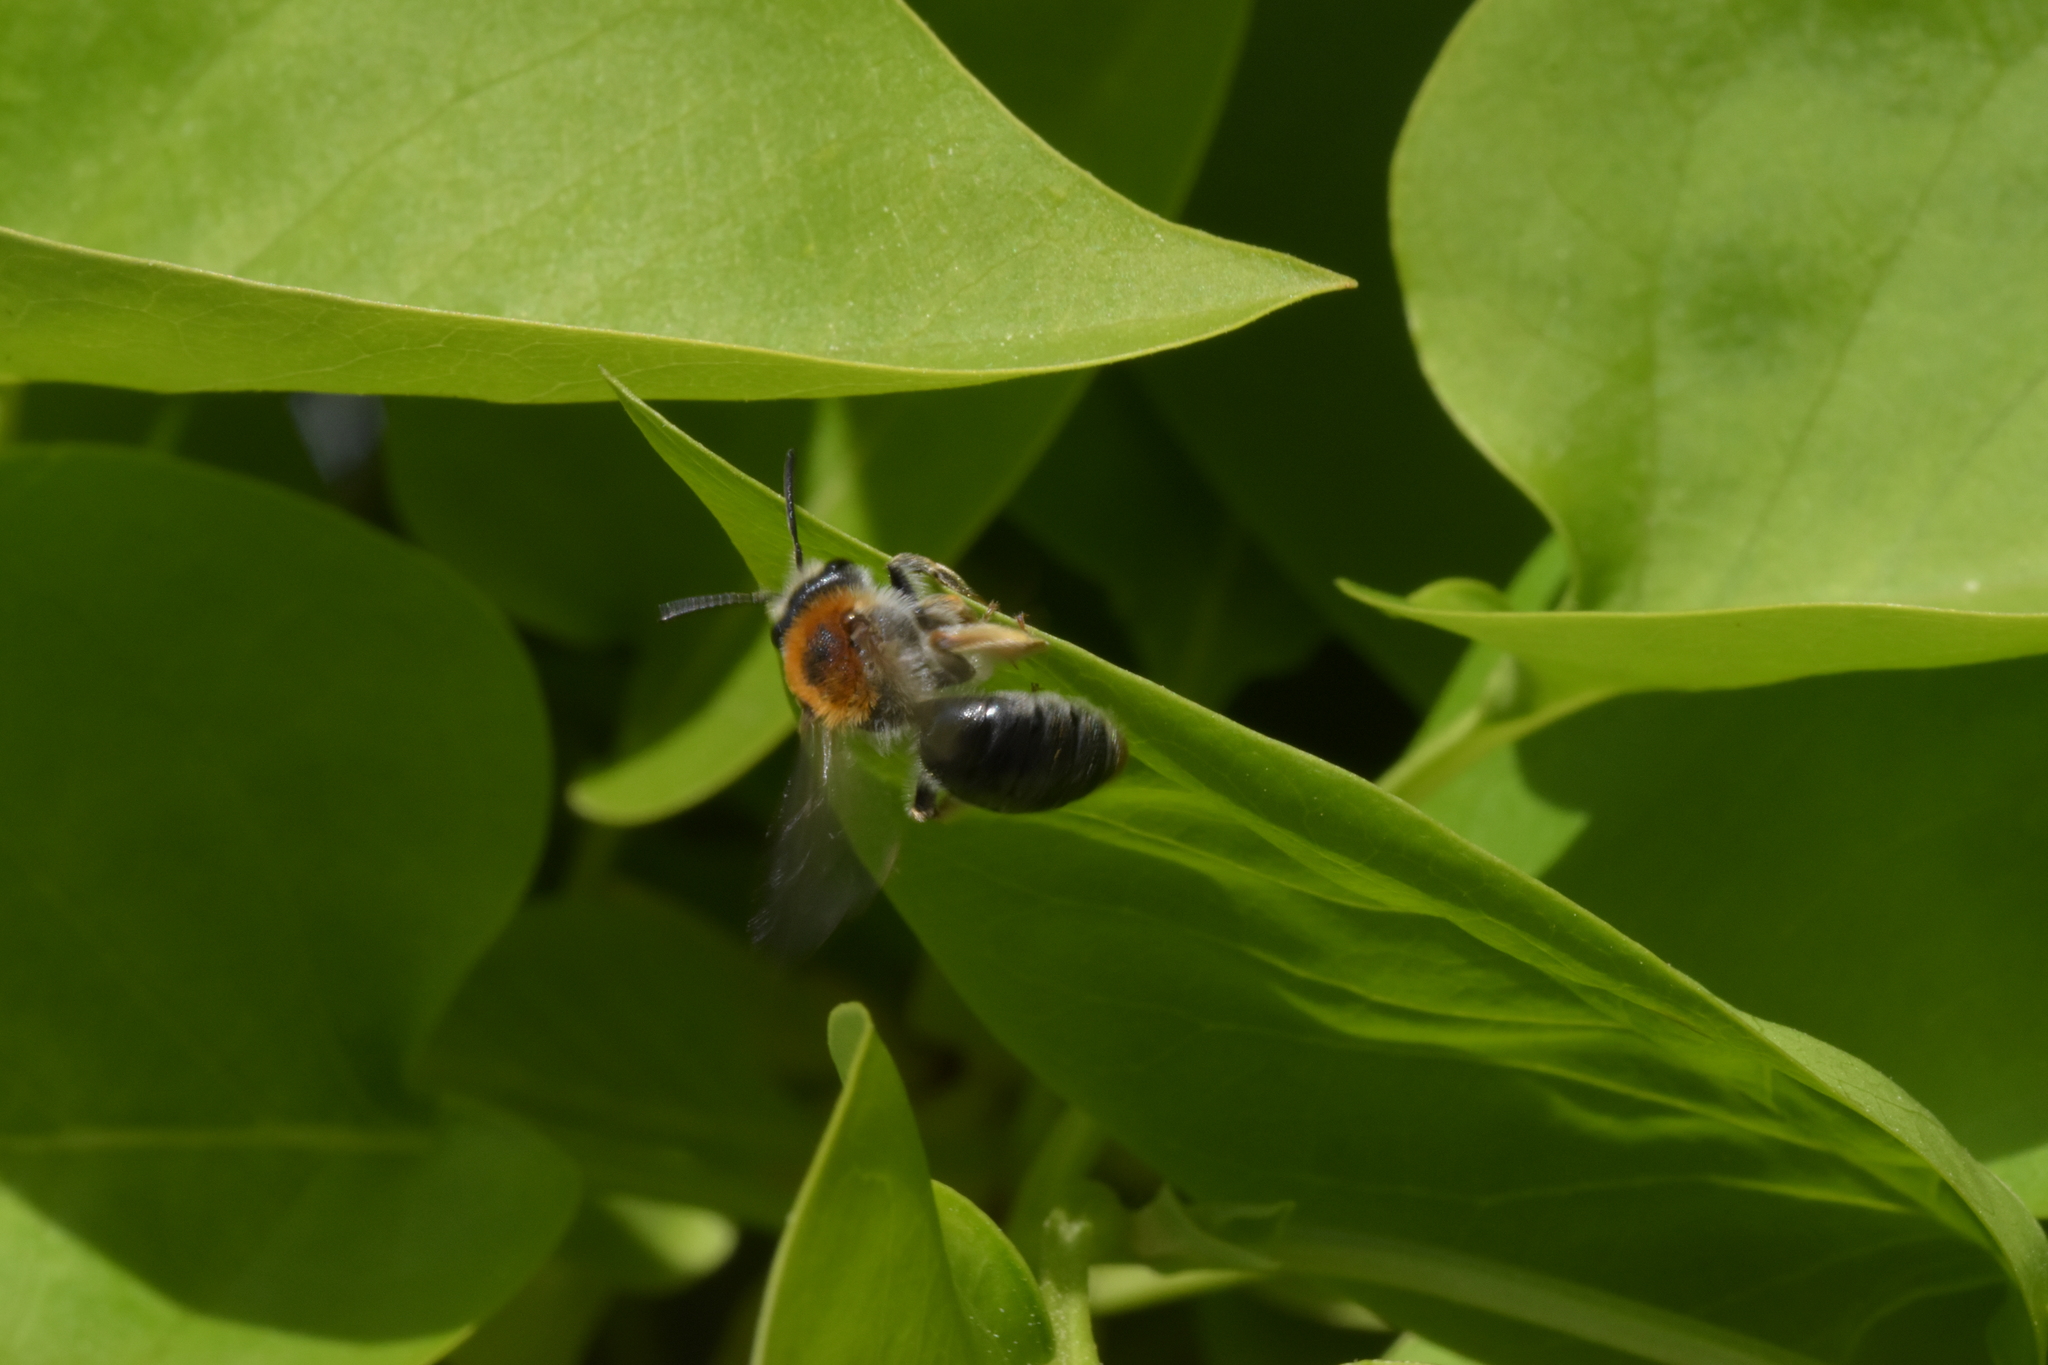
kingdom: Animalia
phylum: Arthropoda
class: Insecta
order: Hymenoptera
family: Andrenidae
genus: Andrena
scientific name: Andrena haemorrhoa
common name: Early mining bee
